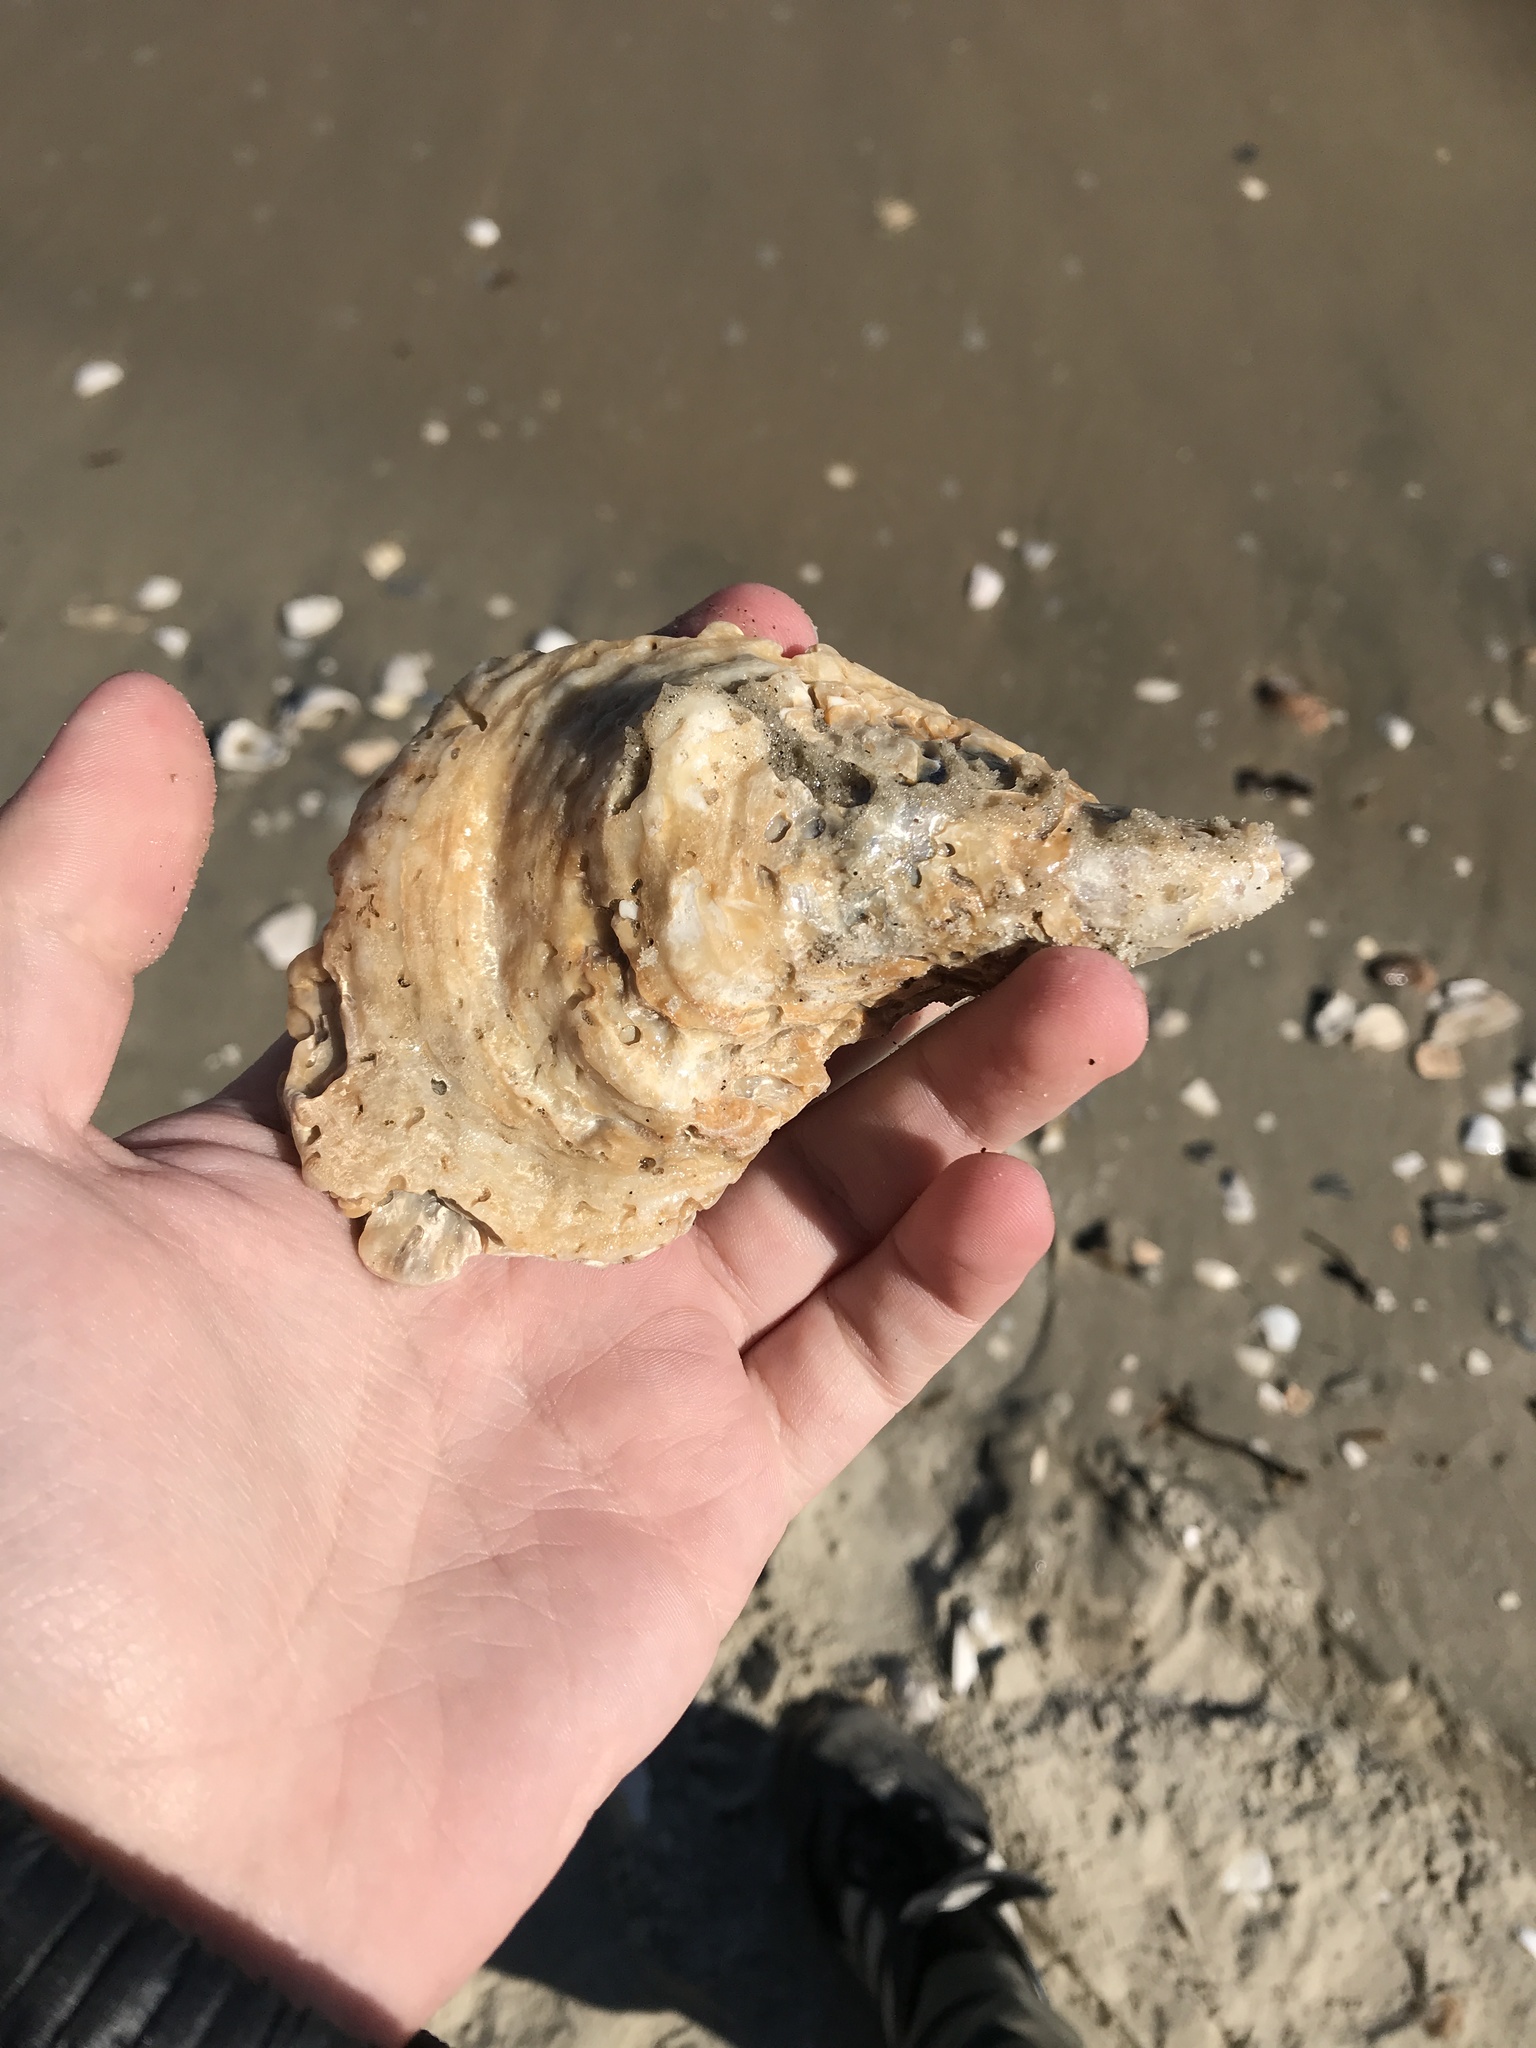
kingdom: Animalia
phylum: Mollusca
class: Bivalvia
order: Ostreida
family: Ostreidae
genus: Crassostrea
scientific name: Crassostrea virginica
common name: American oyster
